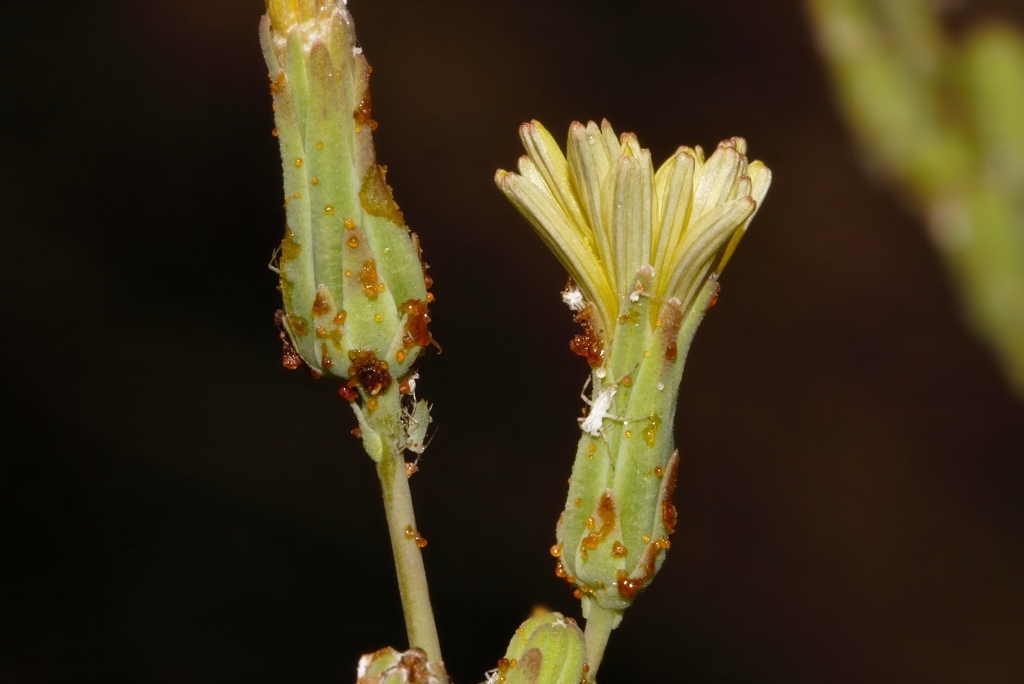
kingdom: Plantae
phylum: Tracheophyta
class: Magnoliopsida
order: Asterales
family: Asteraceae
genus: Lactuca
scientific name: Lactuca serriola
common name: Prickly lettuce
